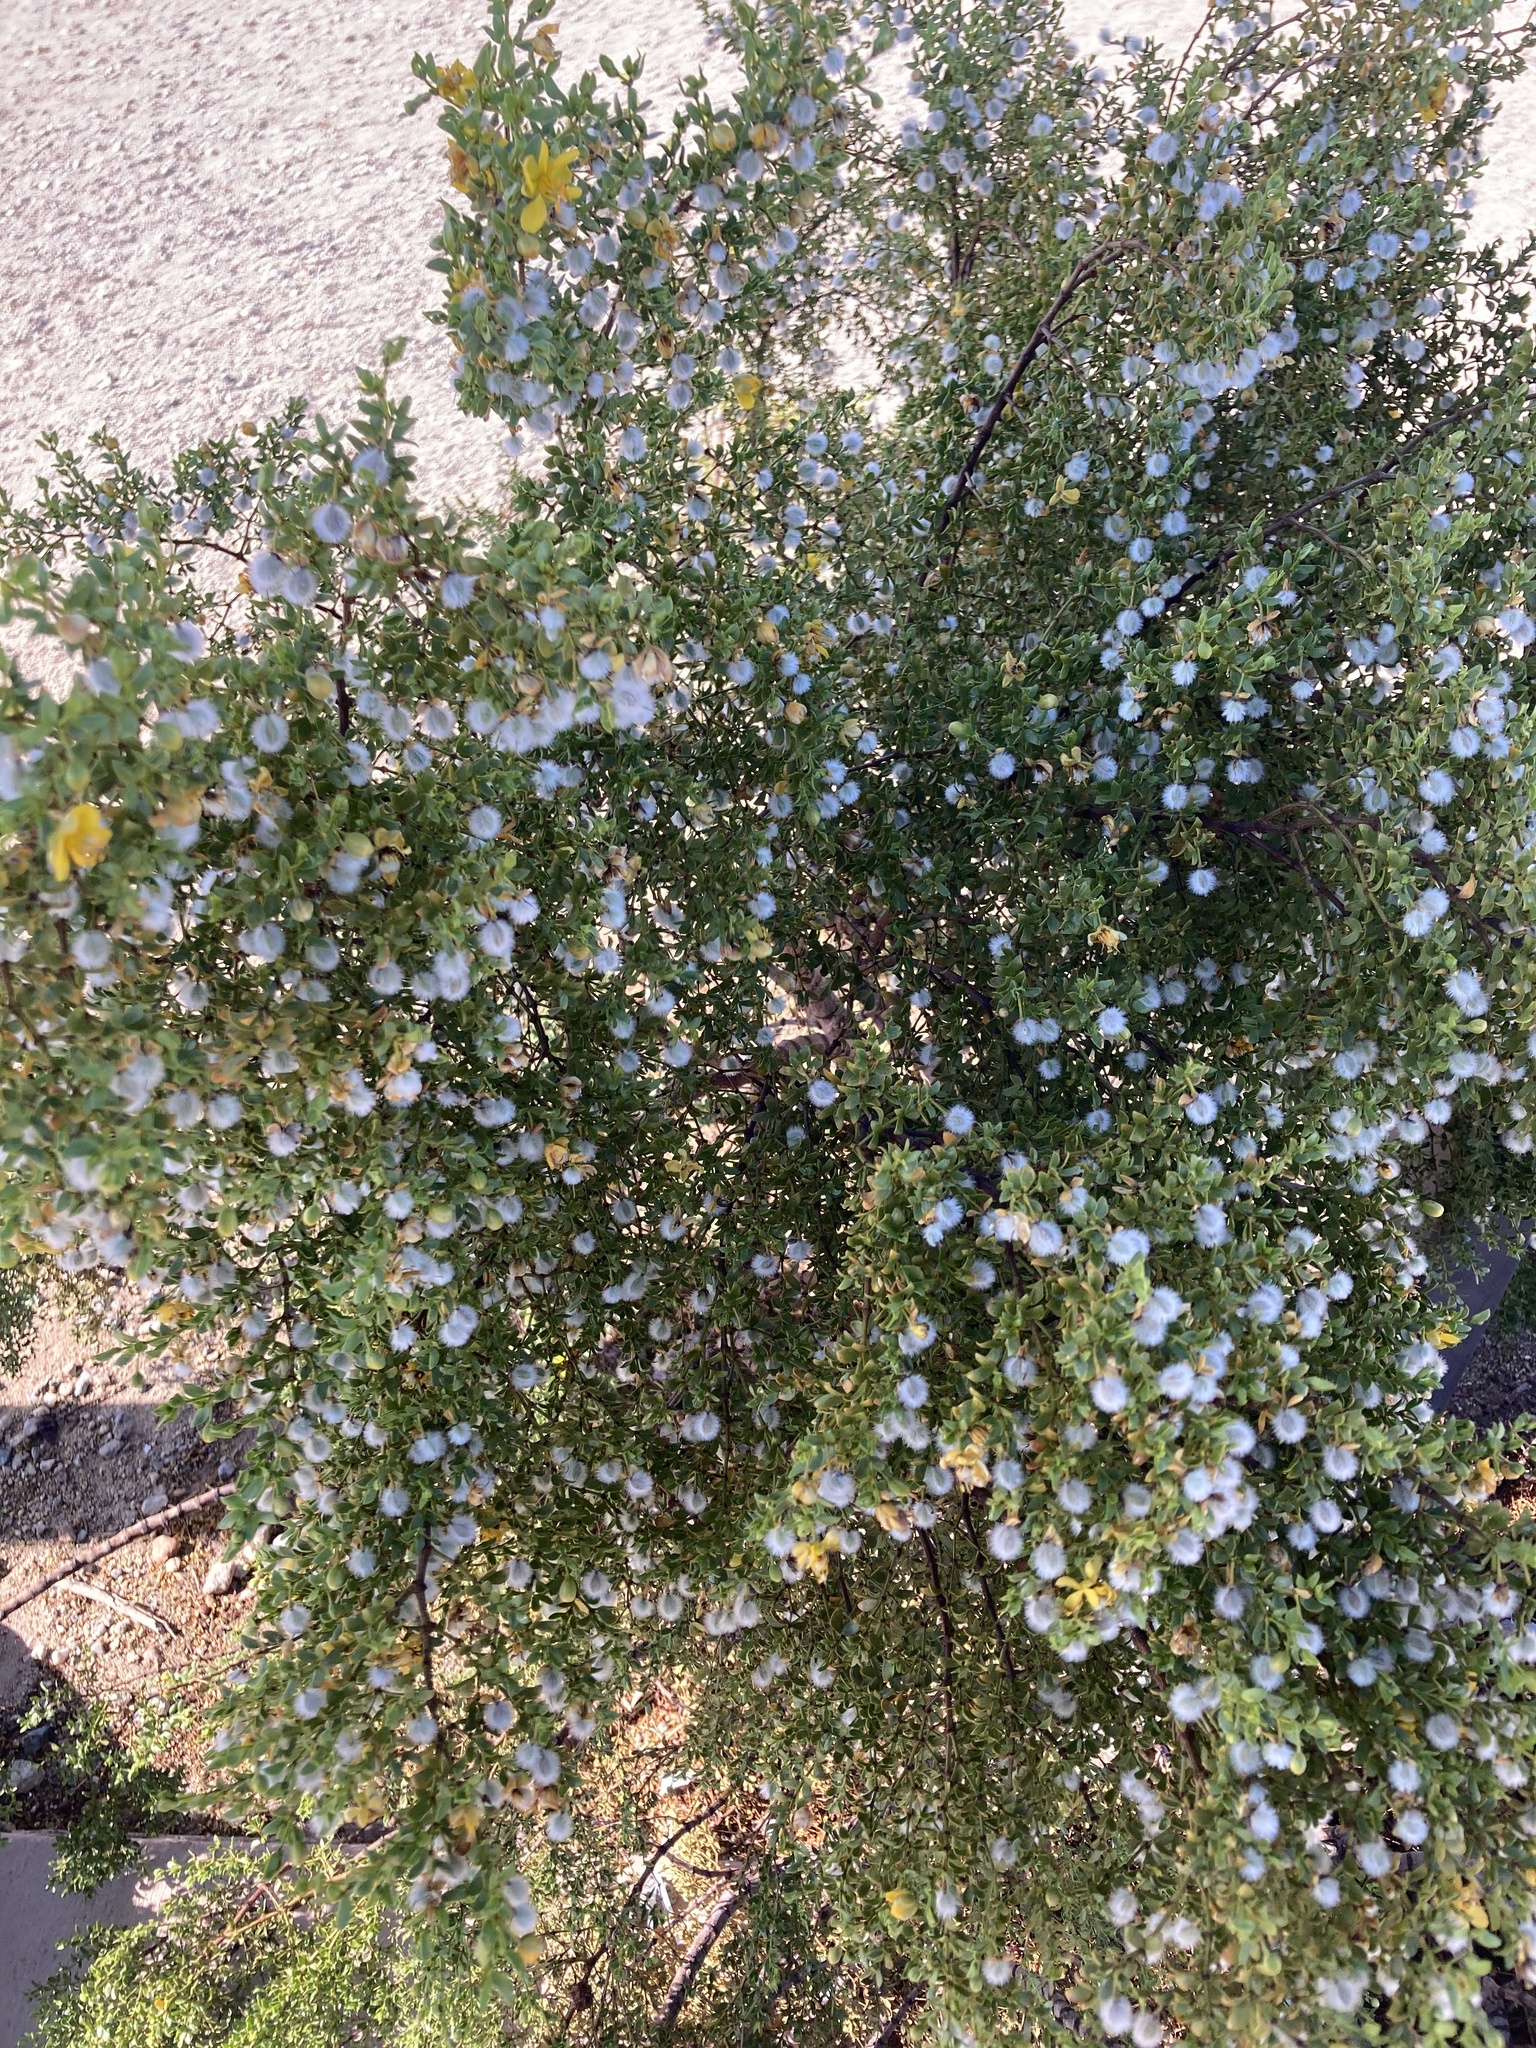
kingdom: Plantae
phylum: Tracheophyta
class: Magnoliopsida
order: Zygophyllales
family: Zygophyllaceae
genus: Larrea
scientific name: Larrea tridentata
